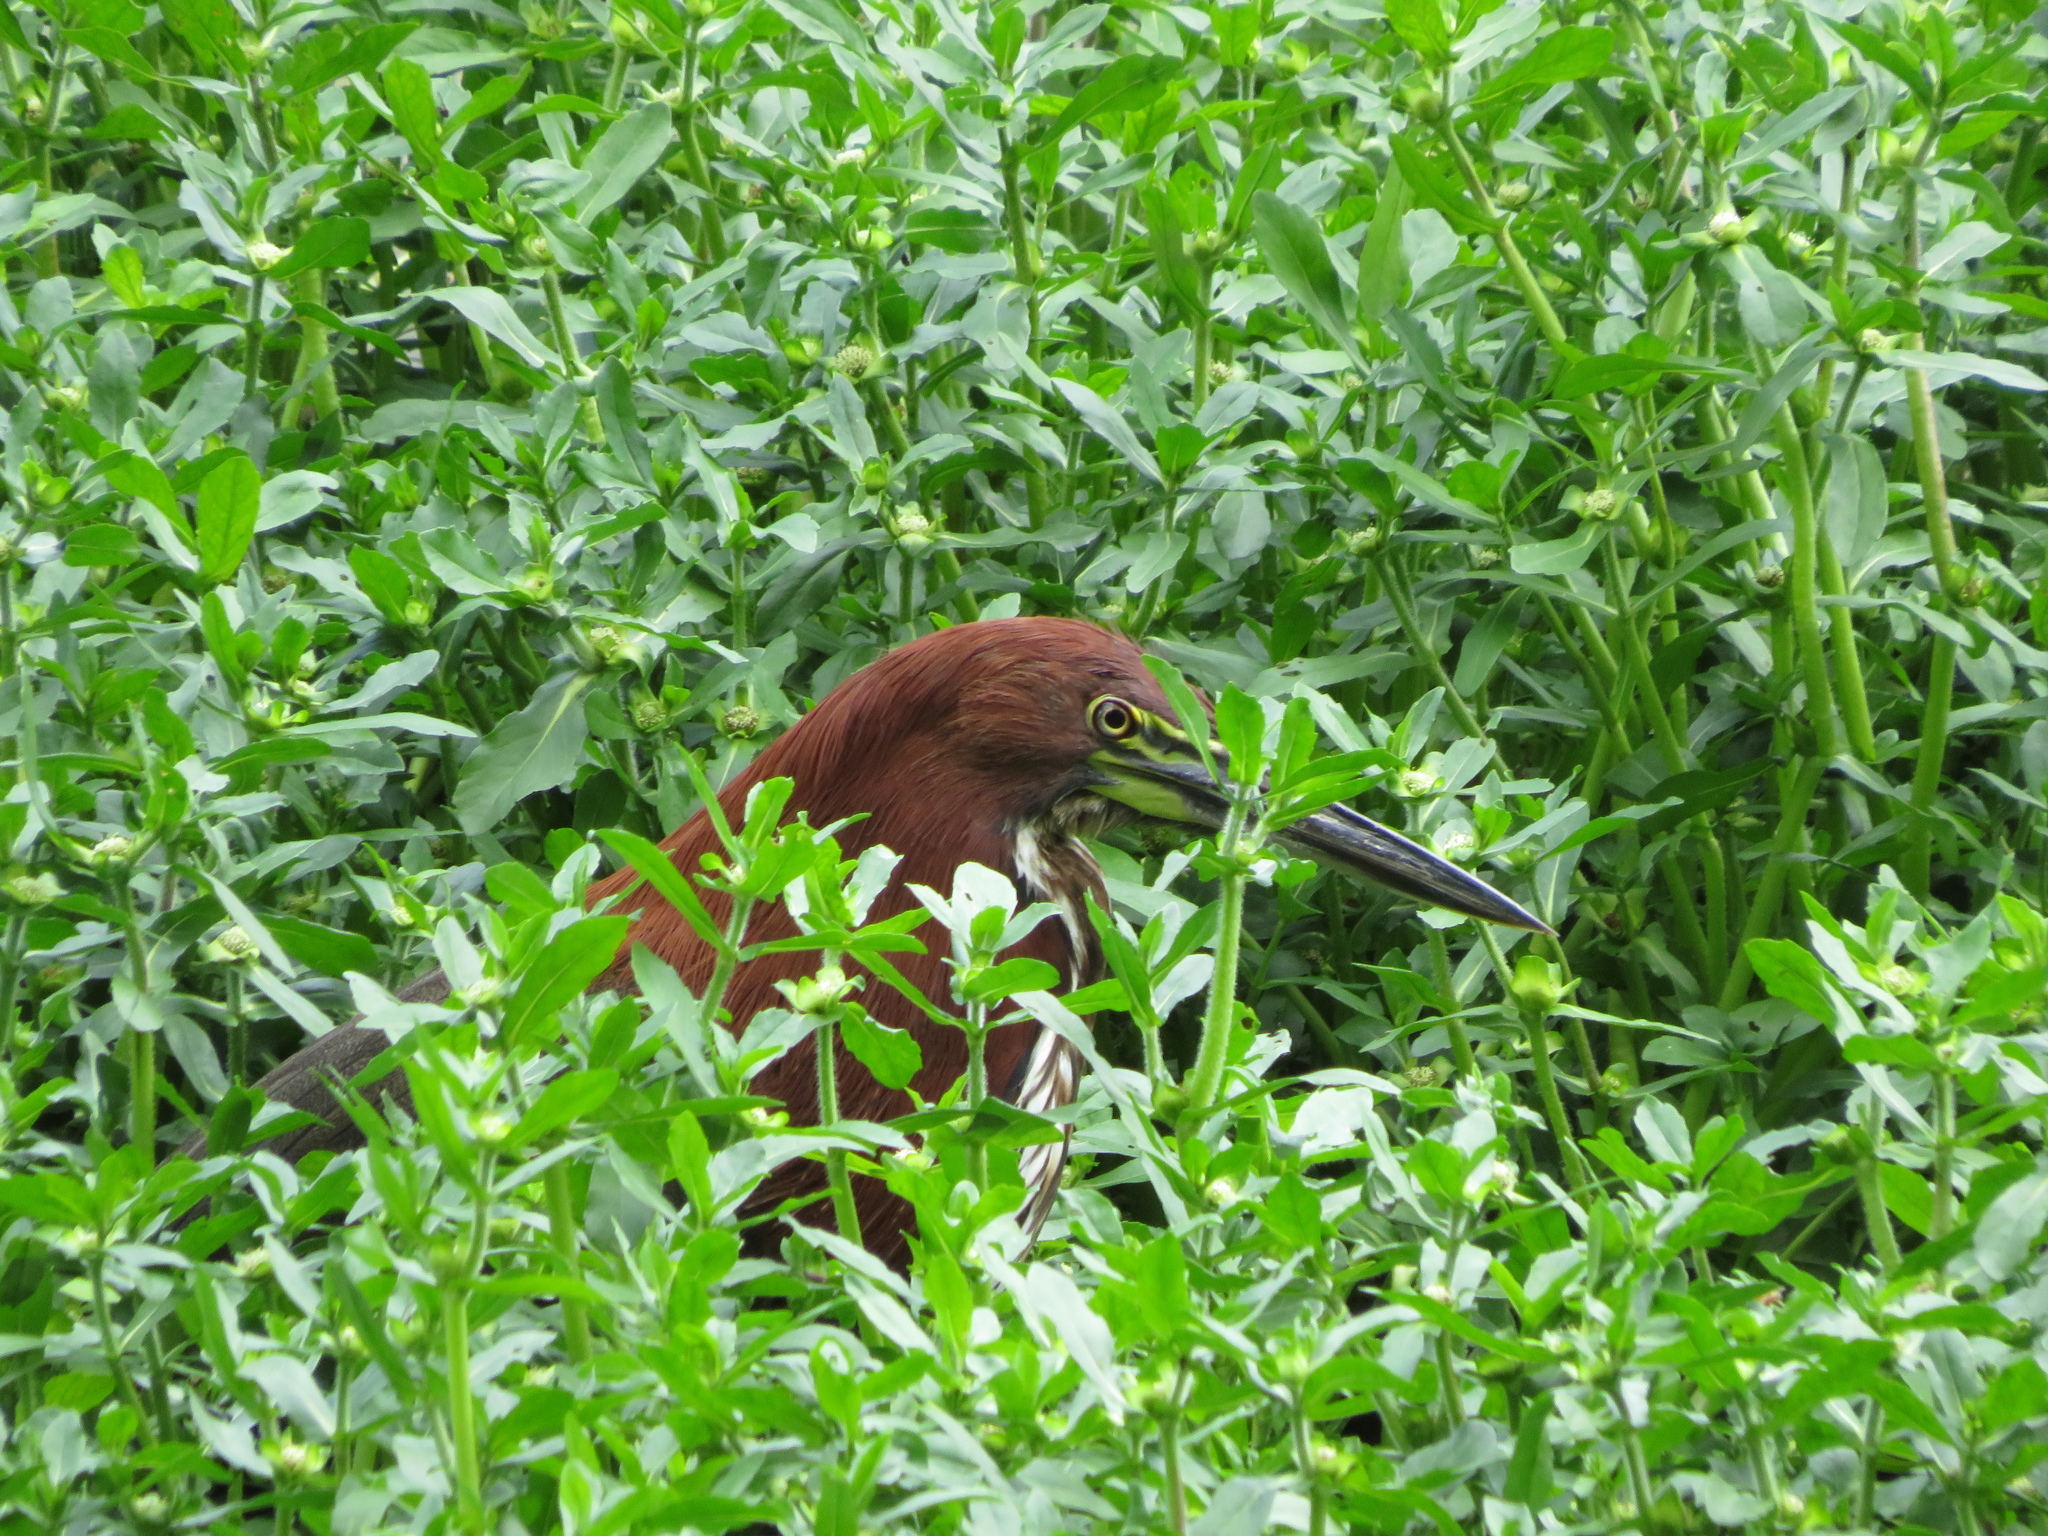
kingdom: Animalia
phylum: Chordata
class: Aves
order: Pelecaniformes
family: Ardeidae
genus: Tigrisoma
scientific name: Tigrisoma lineatum
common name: Rufescent tiger-heron
